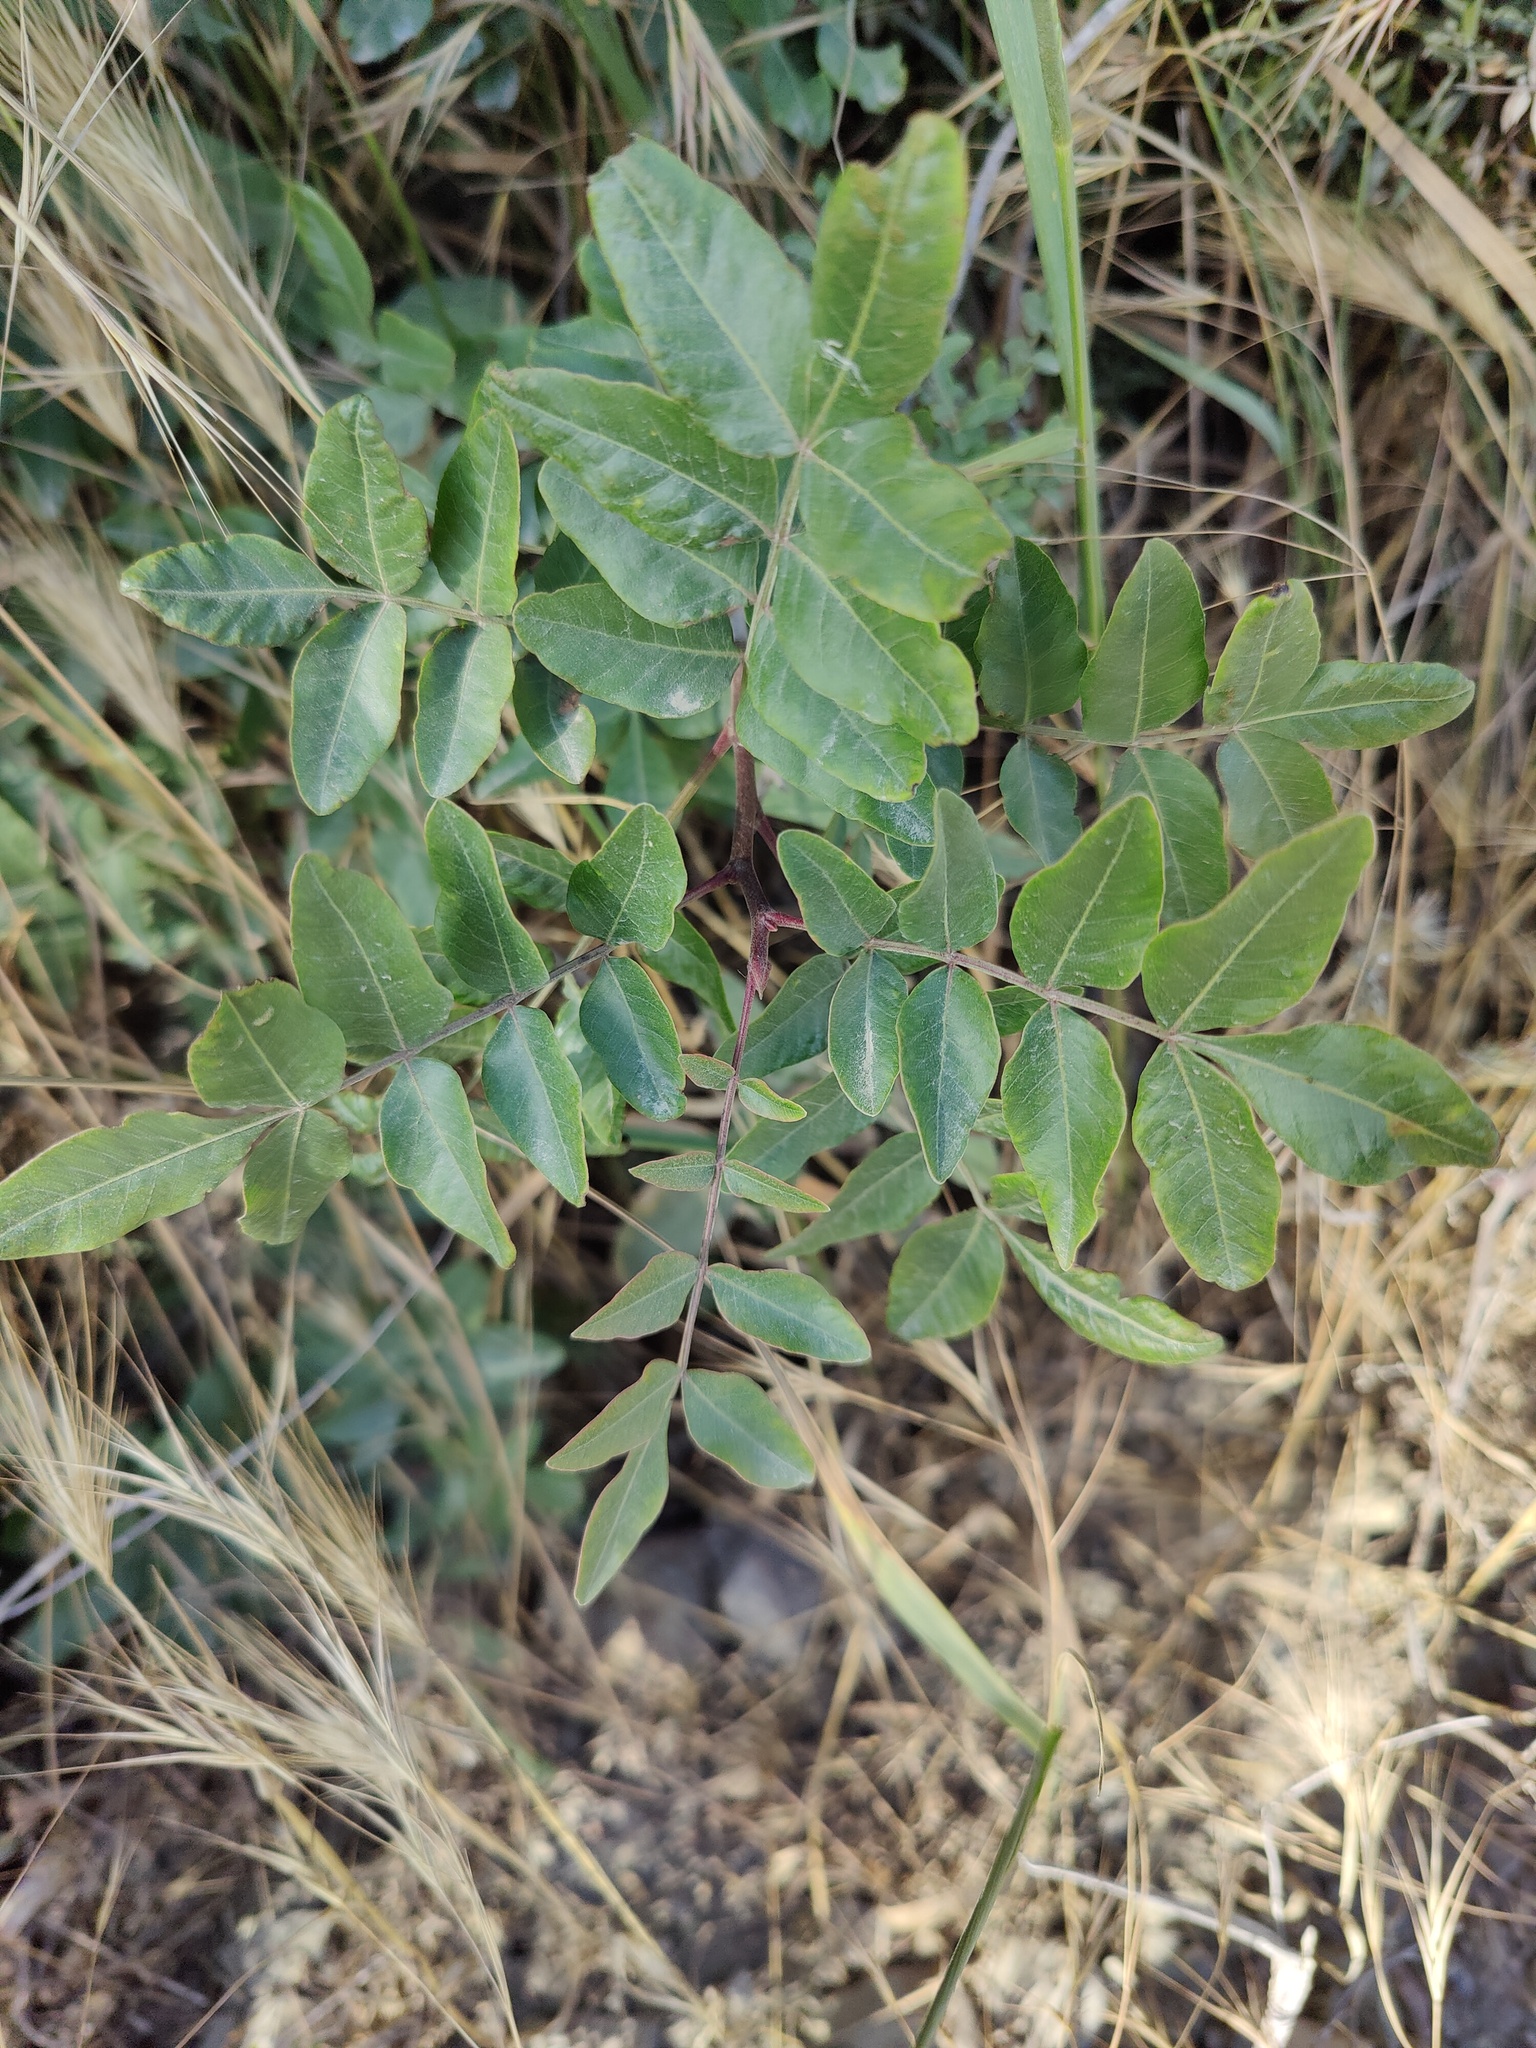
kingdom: Plantae
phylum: Tracheophyta
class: Magnoliopsida
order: Sapindales
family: Anacardiaceae
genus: Pistacia
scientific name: Pistacia atlantica
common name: Mt. atlas mastic tree
